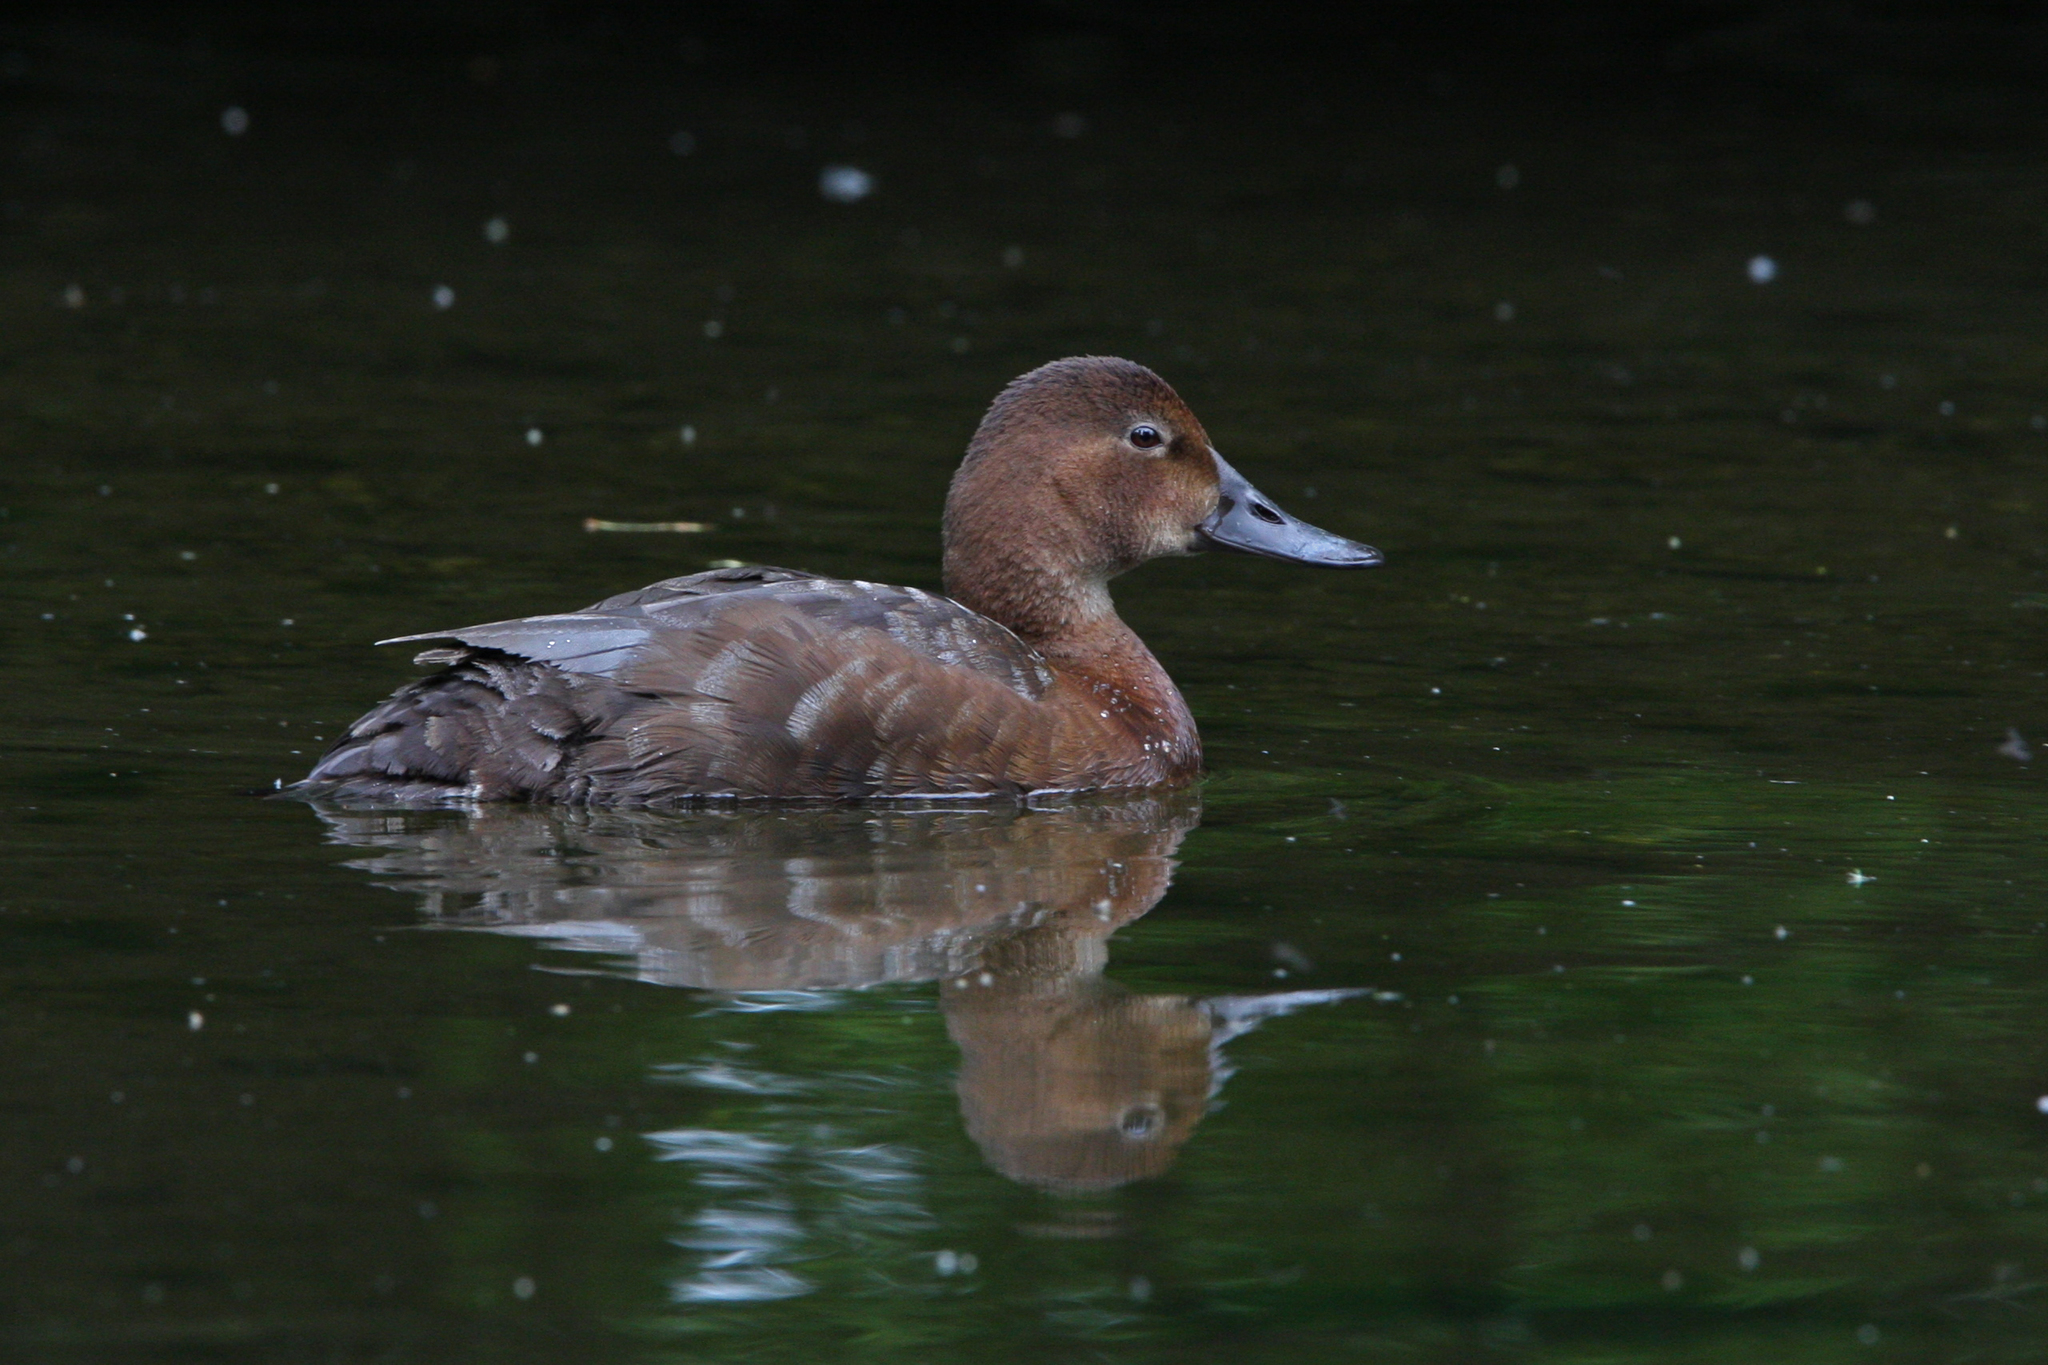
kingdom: Animalia
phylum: Chordata
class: Aves
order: Anseriformes
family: Anatidae
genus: Aythya
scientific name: Aythya ferina
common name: Common pochard
